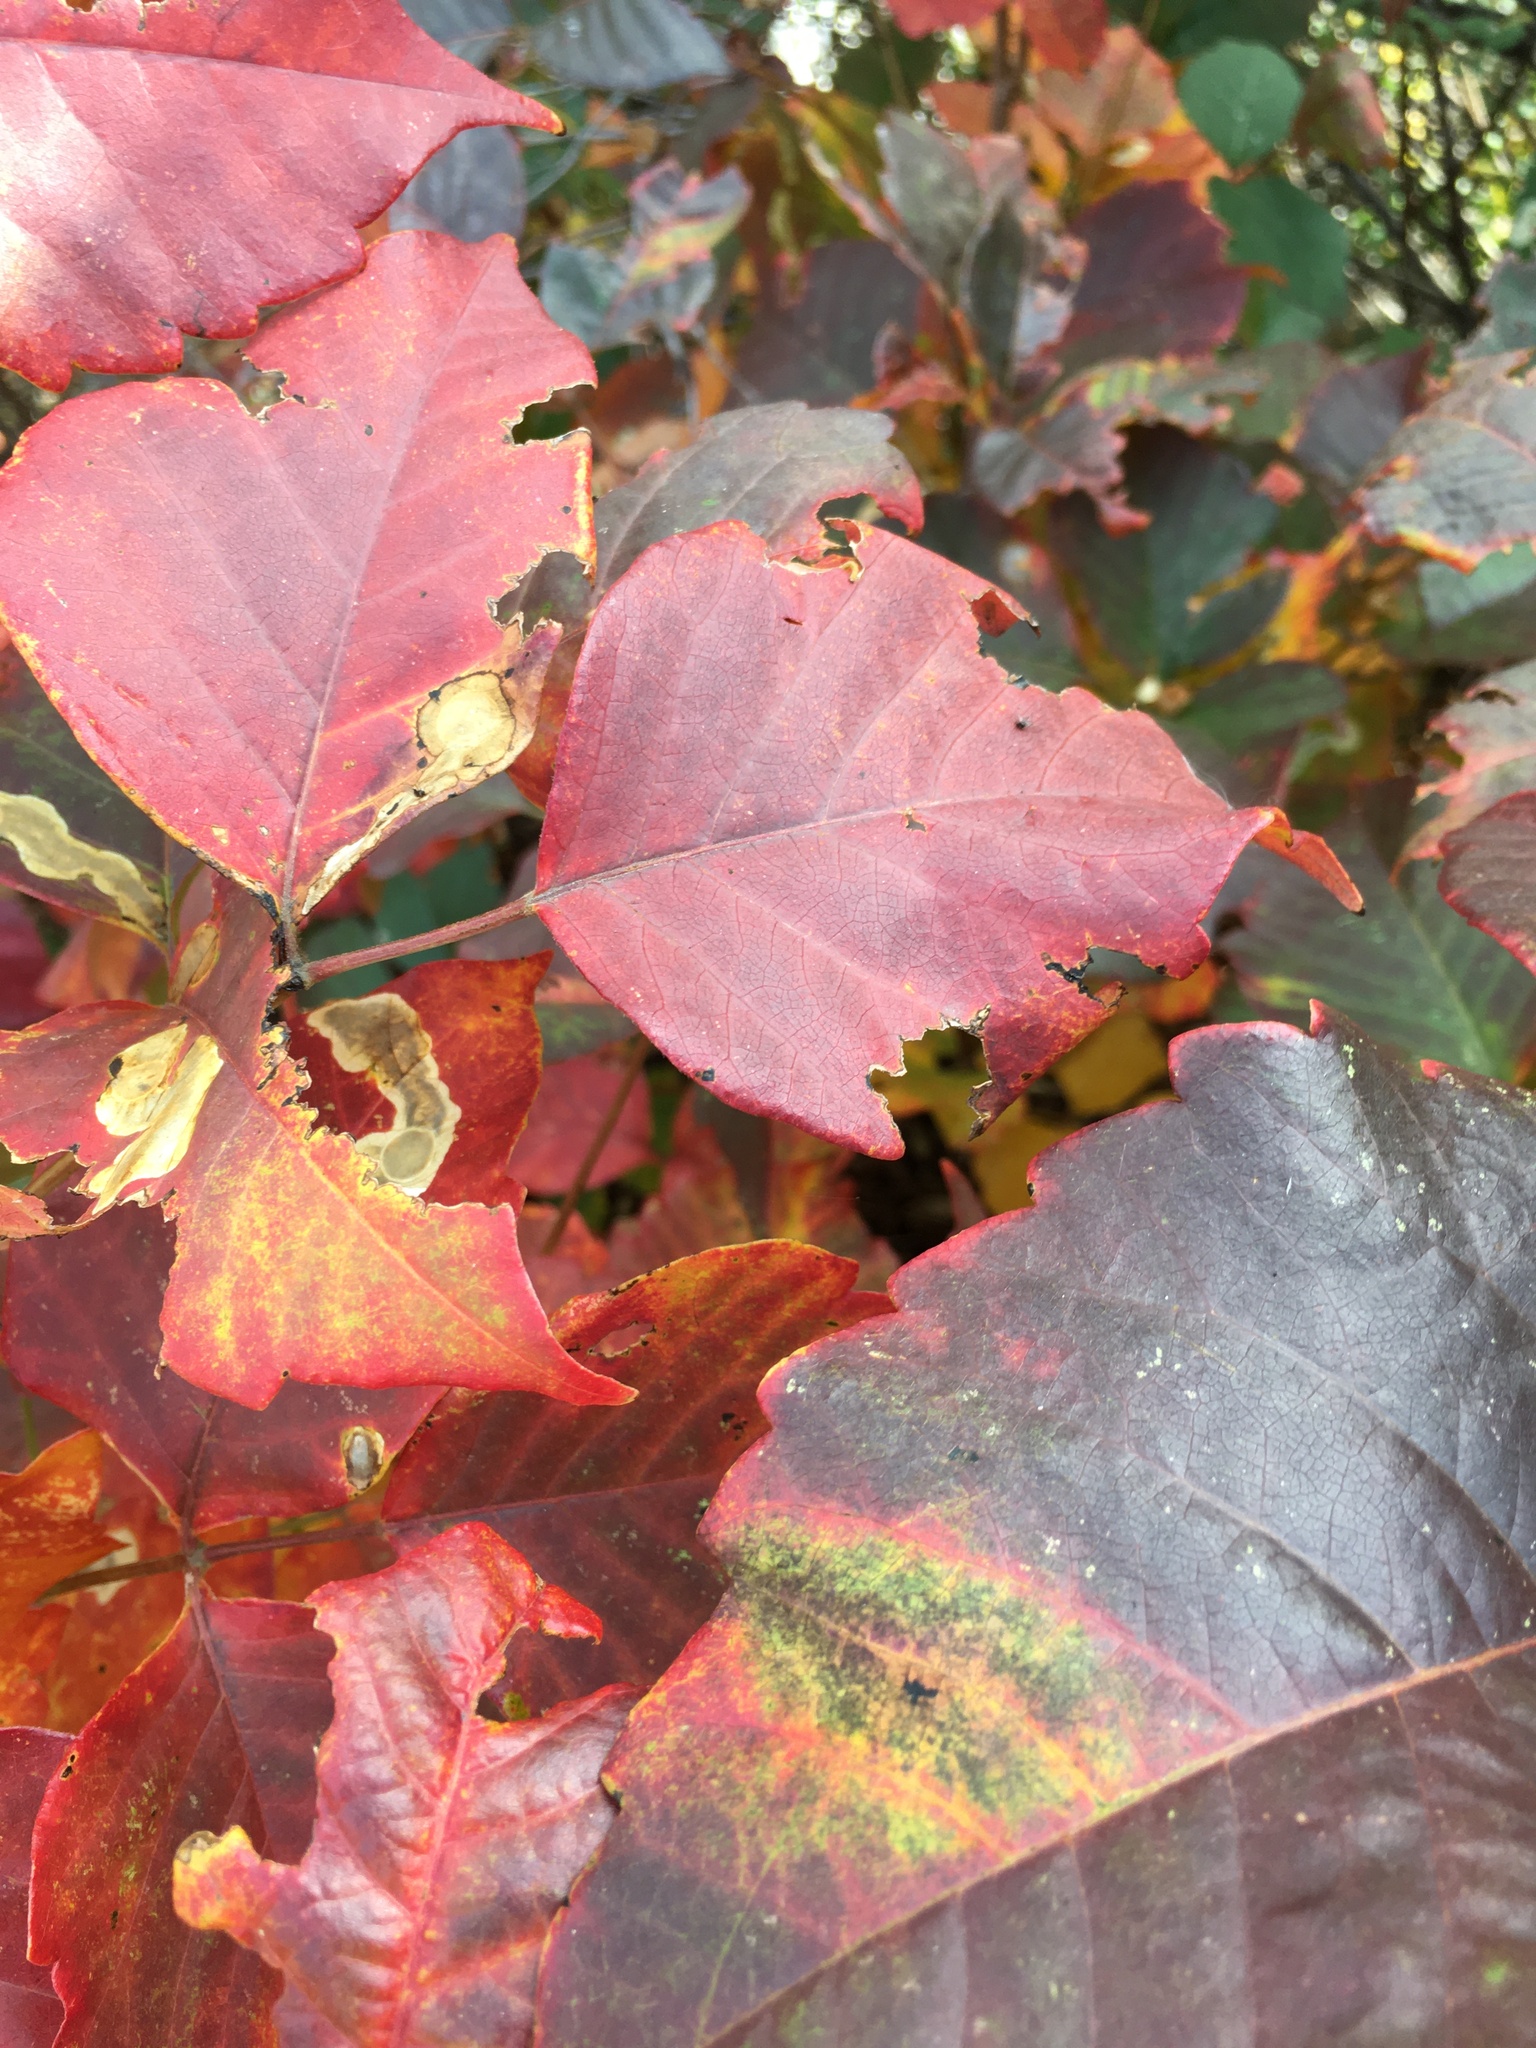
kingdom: Animalia
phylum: Arthropoda
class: Insecta
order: Lepidoptera
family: Gracillariidae
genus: Cameraria
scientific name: Cameraria guttifinitella
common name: Poison ivy leaf-miner moth
